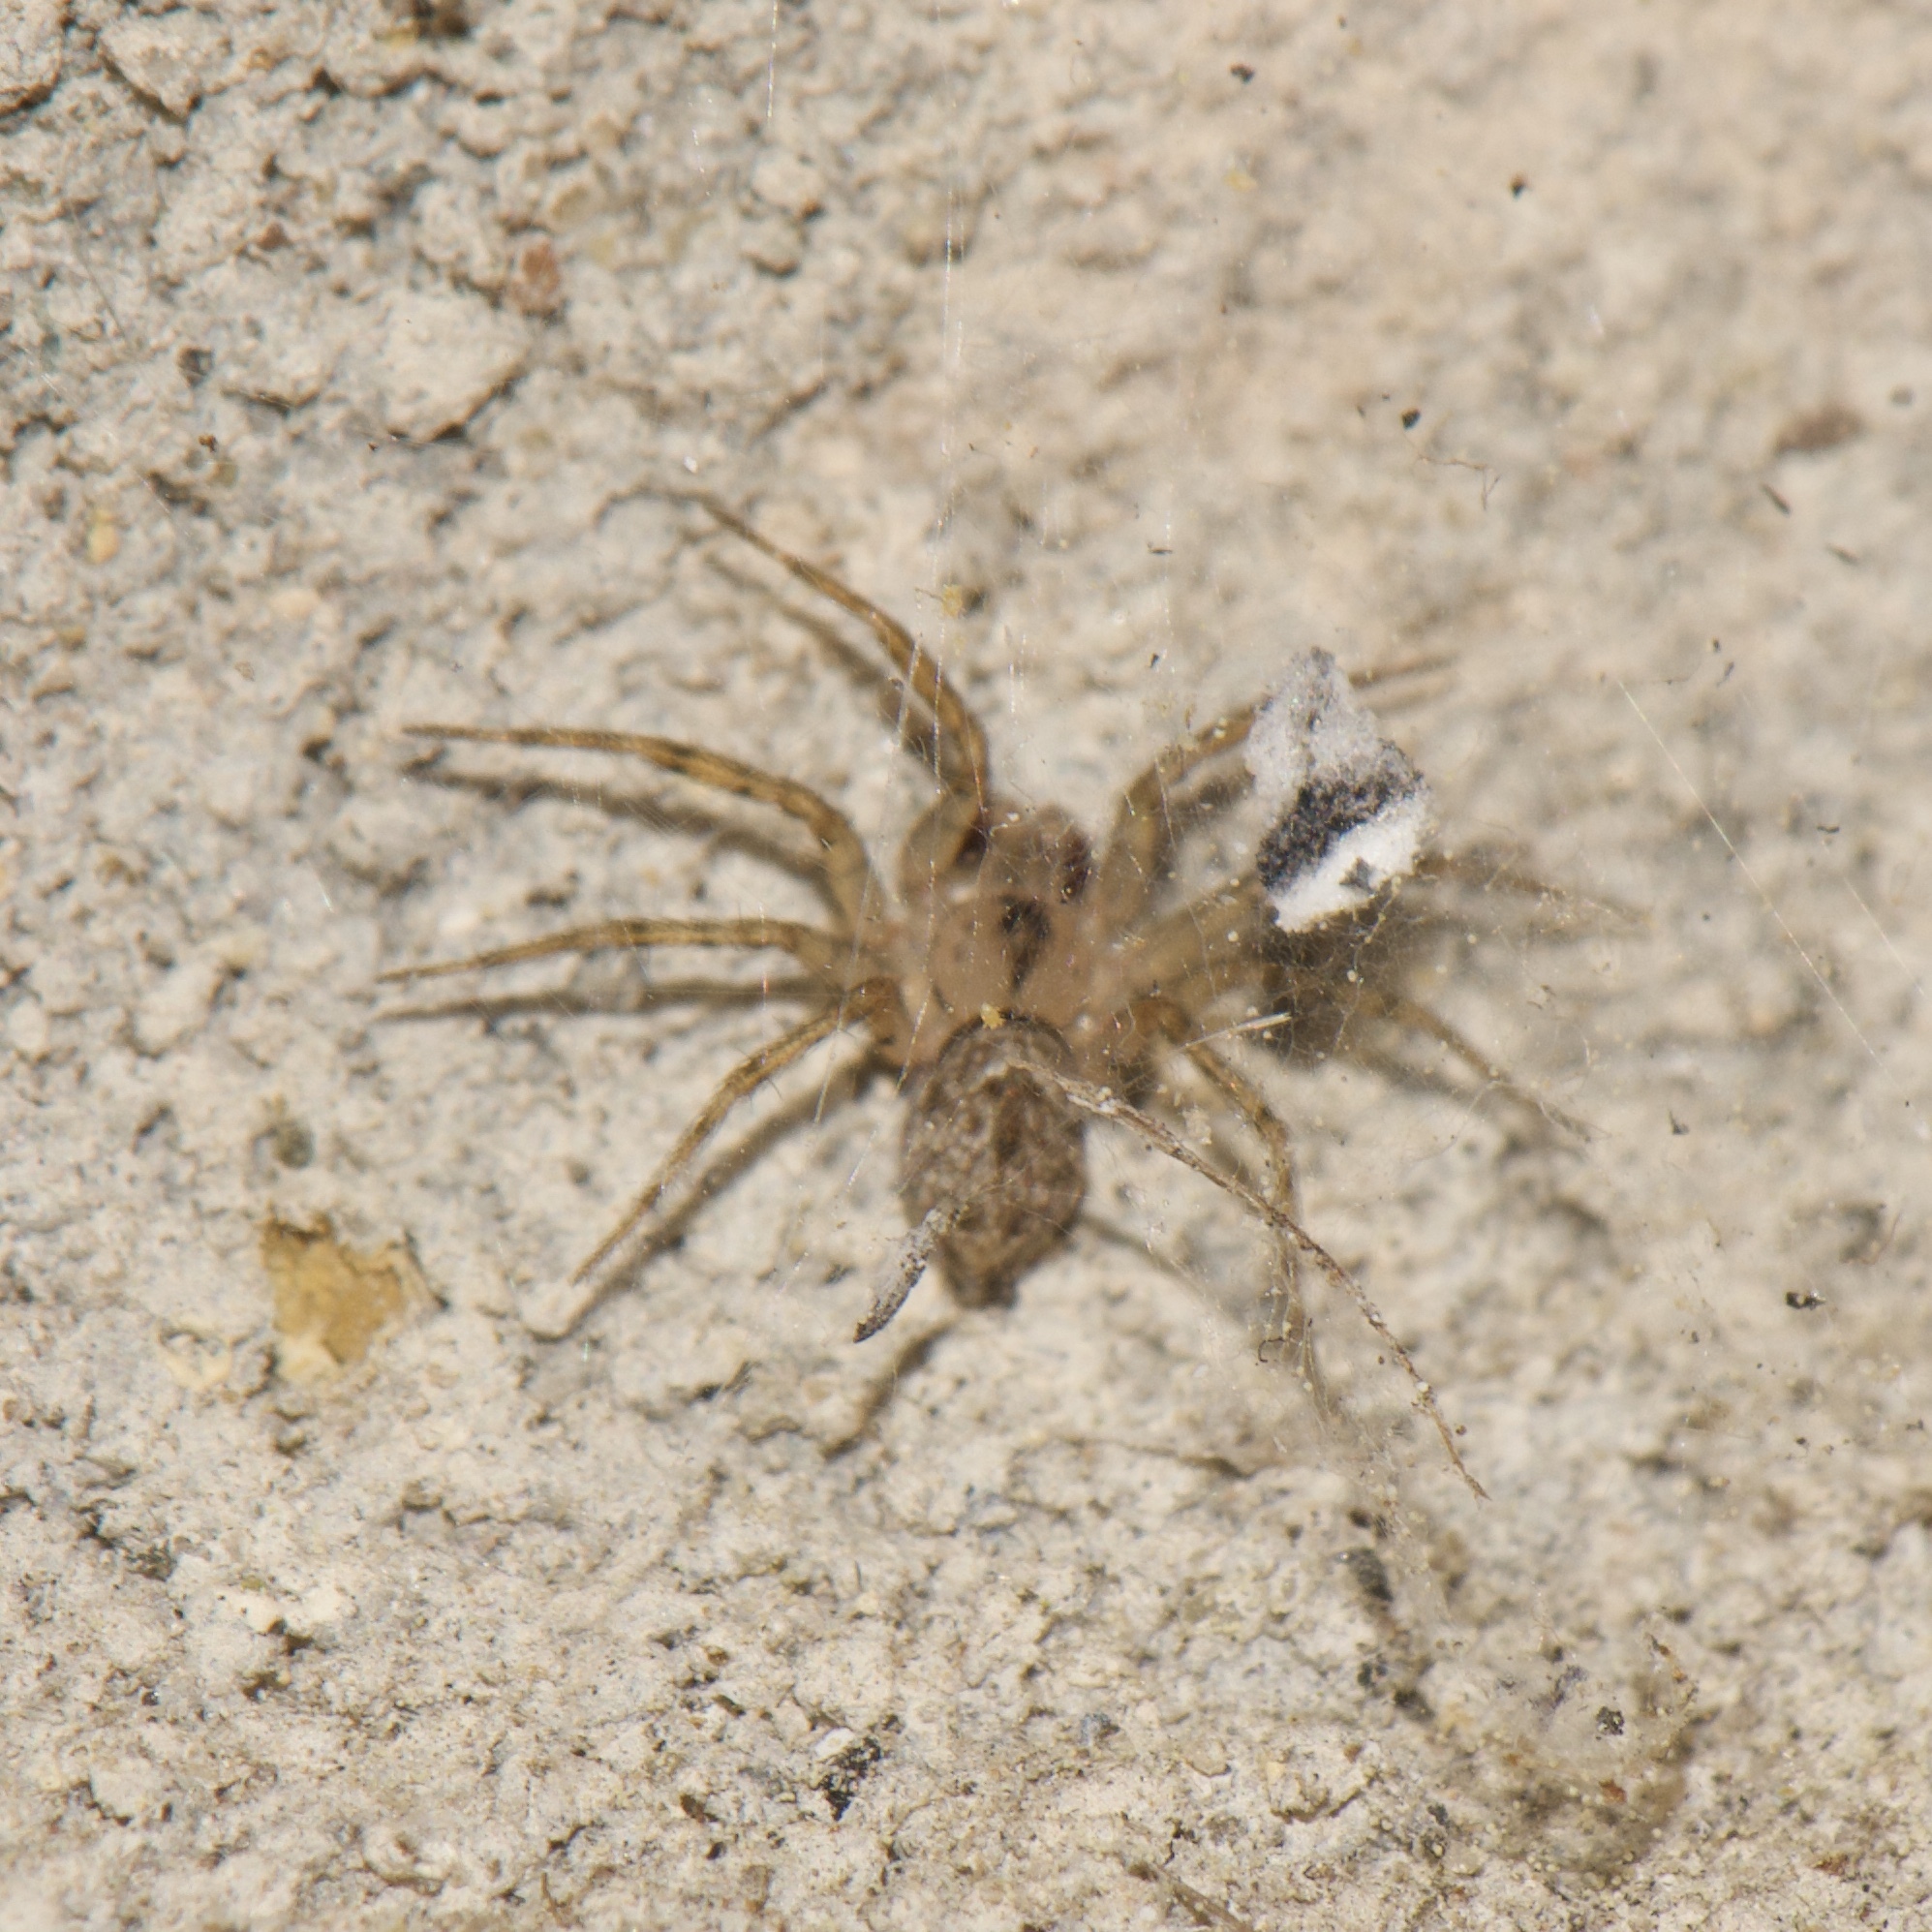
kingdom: Animalia
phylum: Arthropoda
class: Arachnida
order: Araneae
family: Oecobiidae
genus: Oecobius
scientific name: Oecobius navus
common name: Flatmesh weaver
